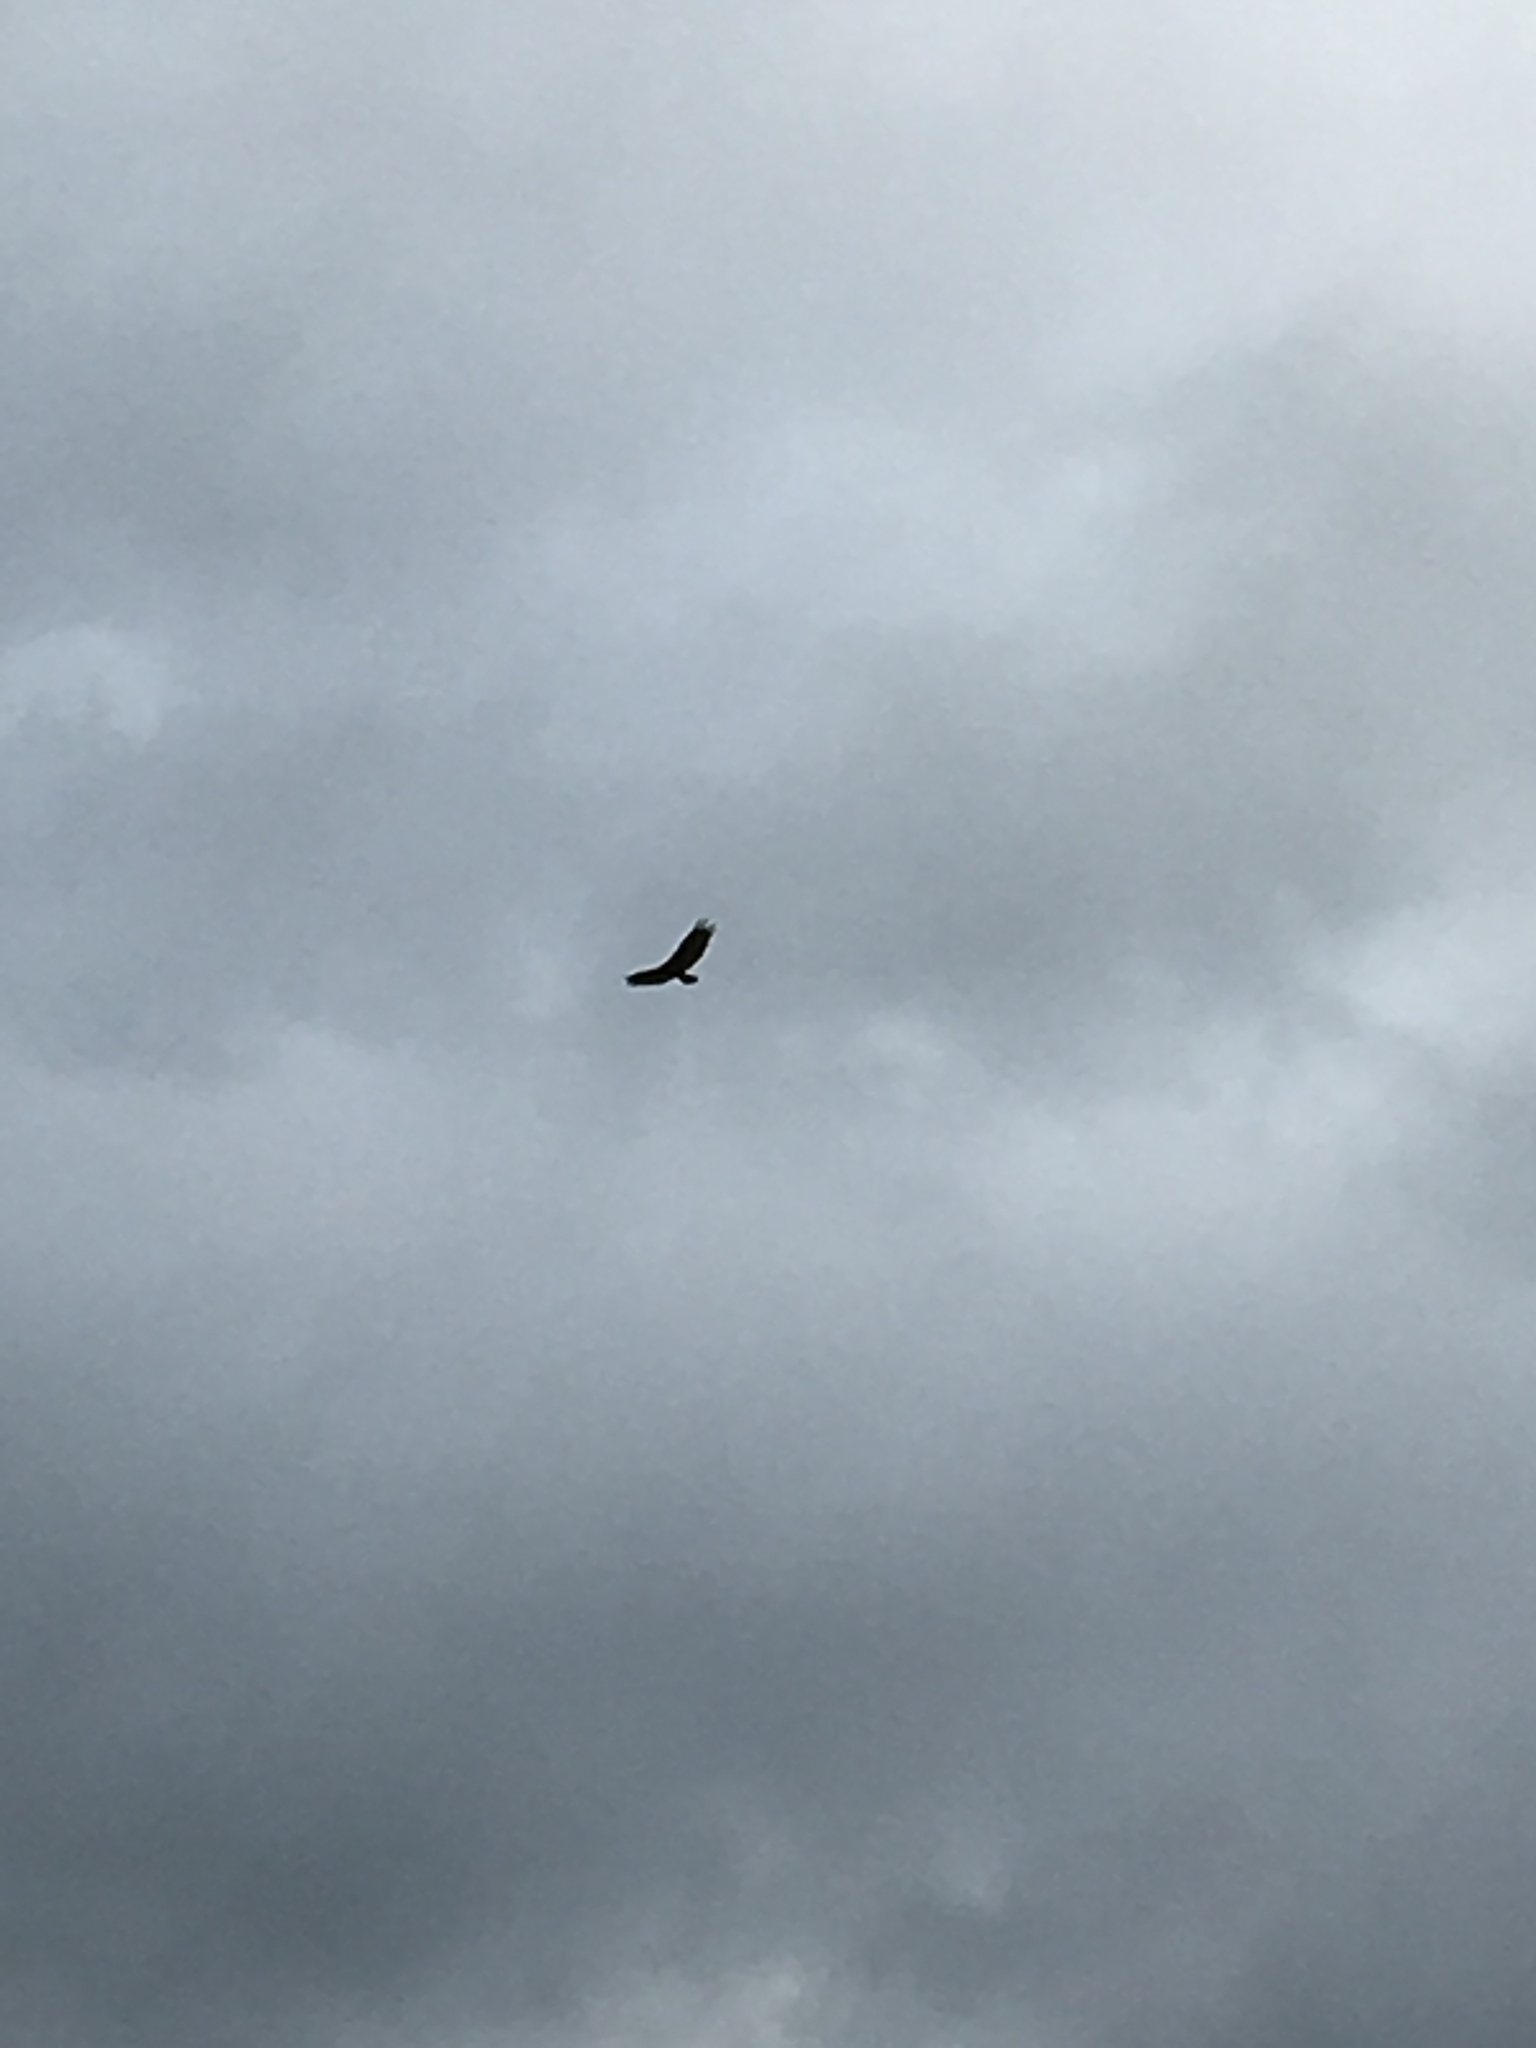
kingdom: Animalia
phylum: Chordata
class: Aves
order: Accipitriformes
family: Cathartidae
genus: Cathartes
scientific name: Cathartes aura
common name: Turkey vulture
